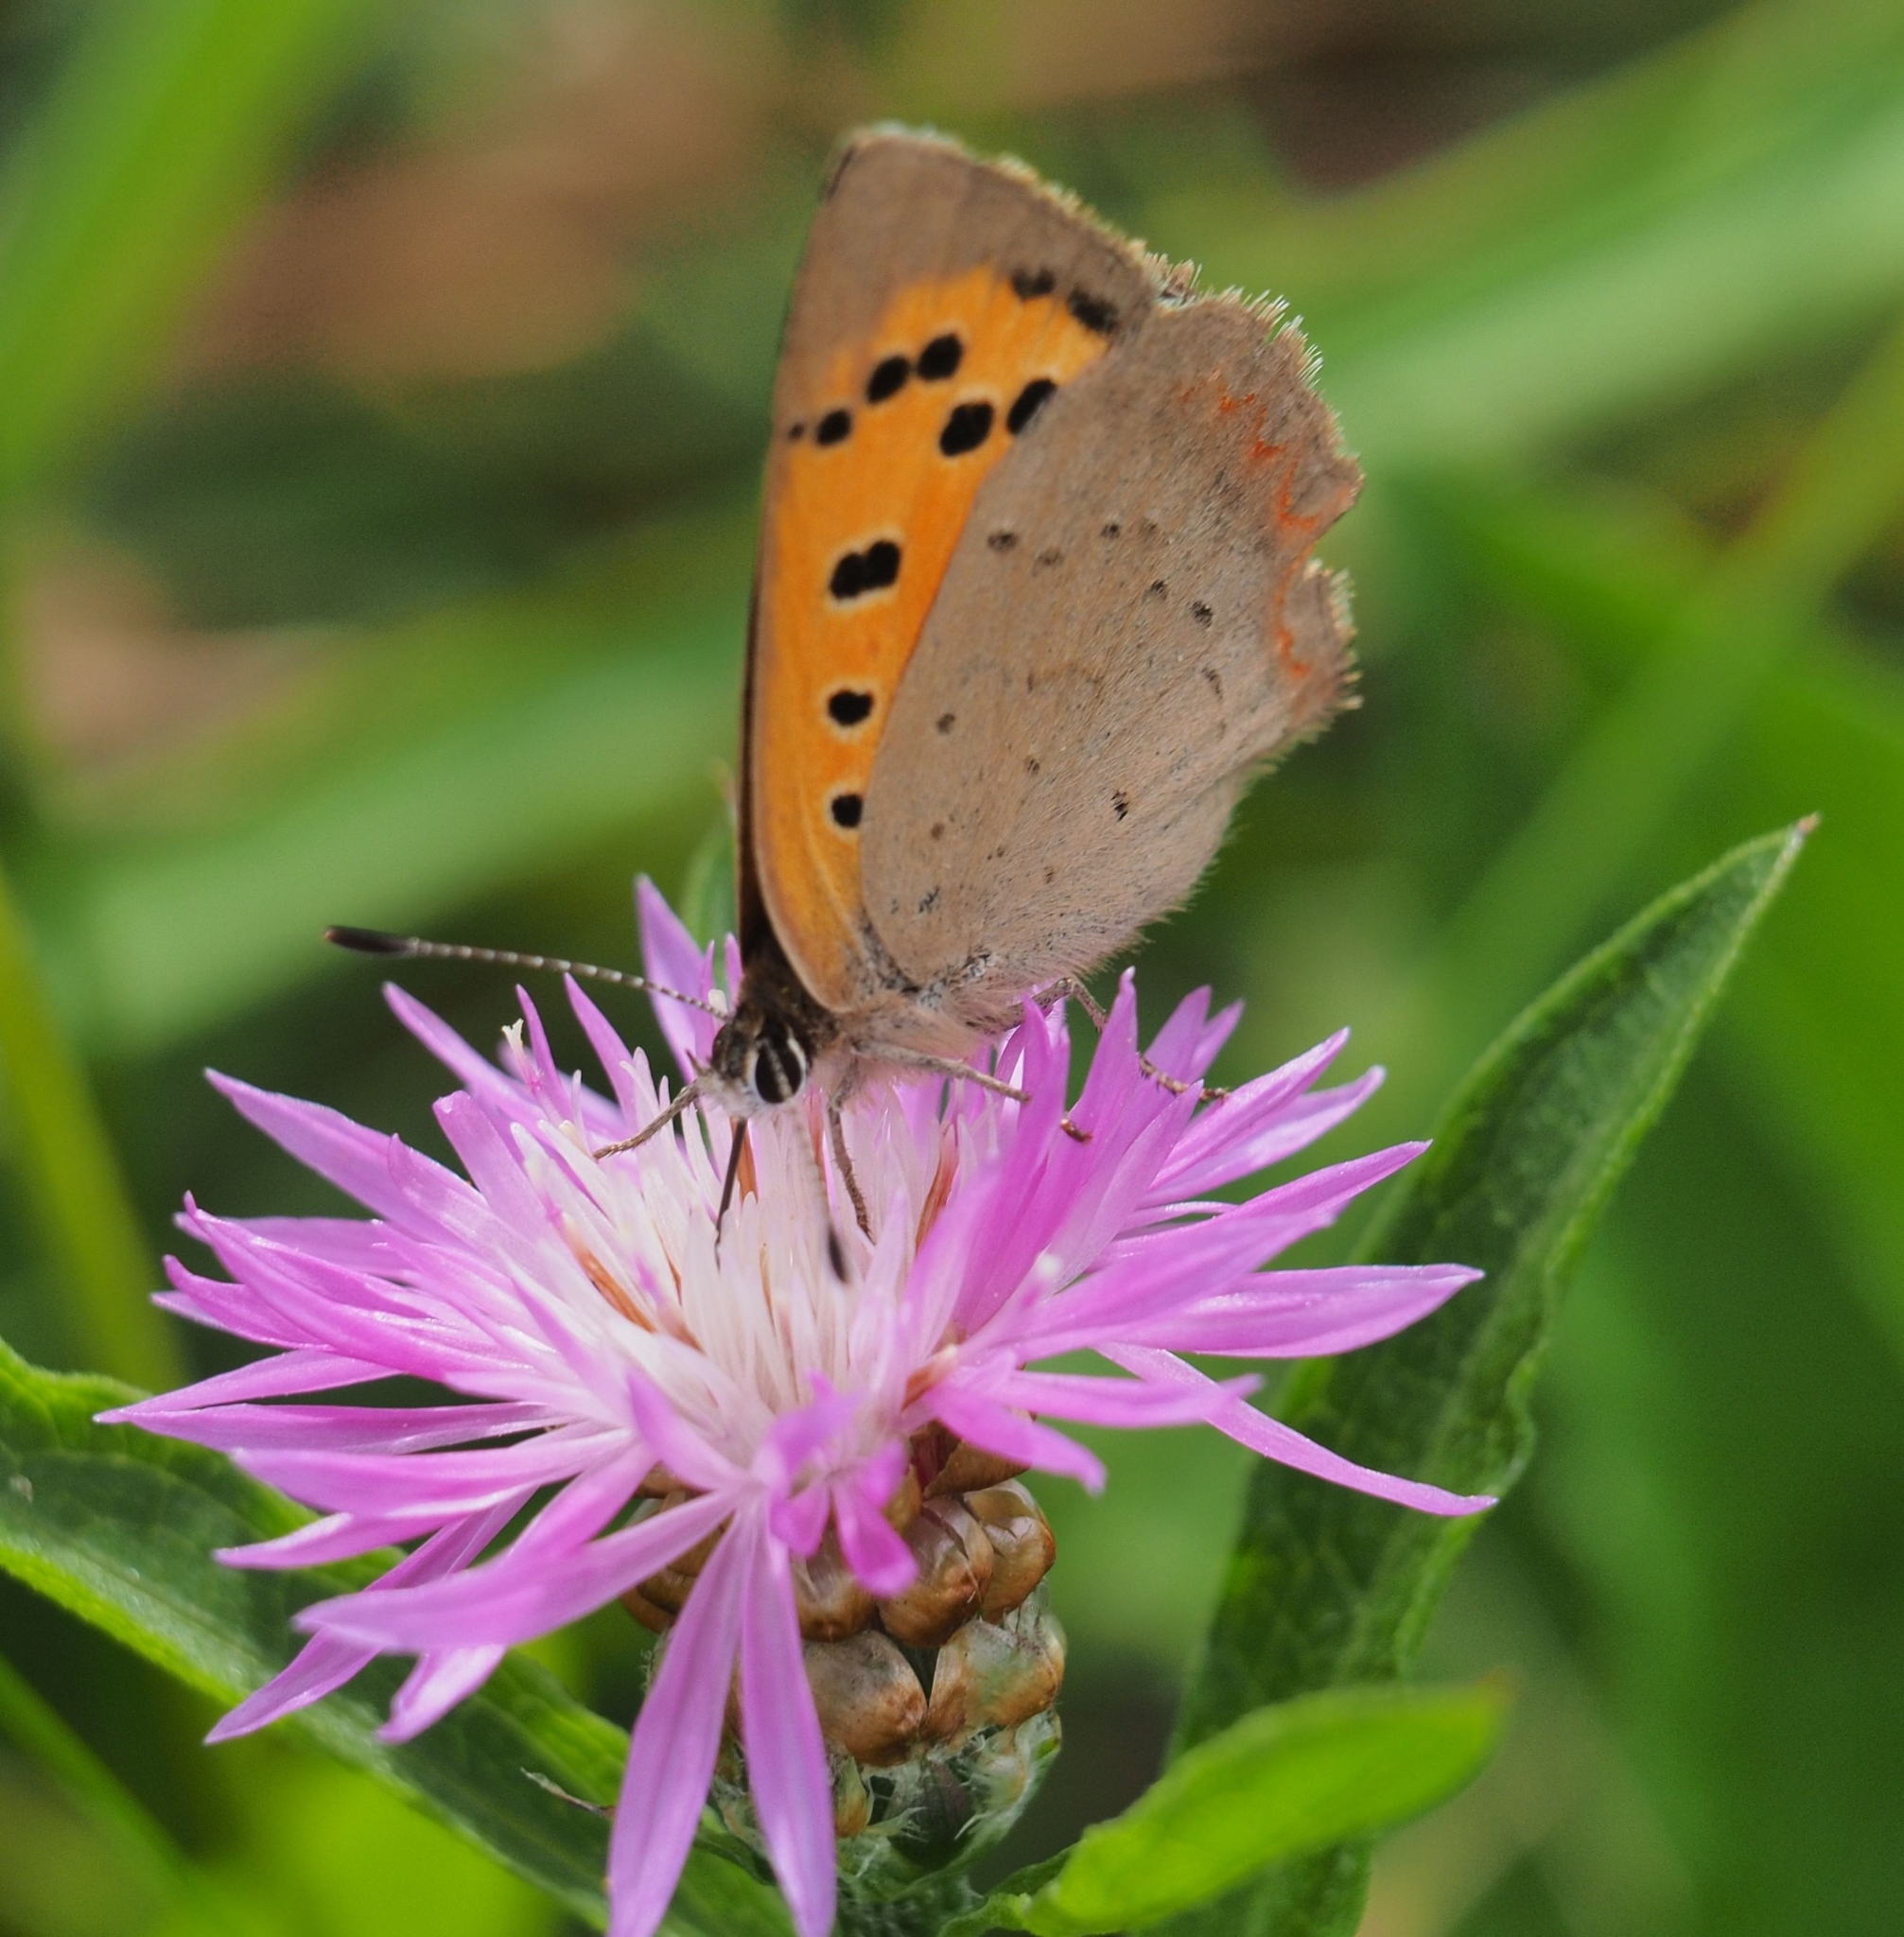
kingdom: Animalia
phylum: Arthropoda
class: Insecta
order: Lepidoptera
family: Lycaenidae
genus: Lycaena
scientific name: Lycaena phlaeas
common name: Small copper
